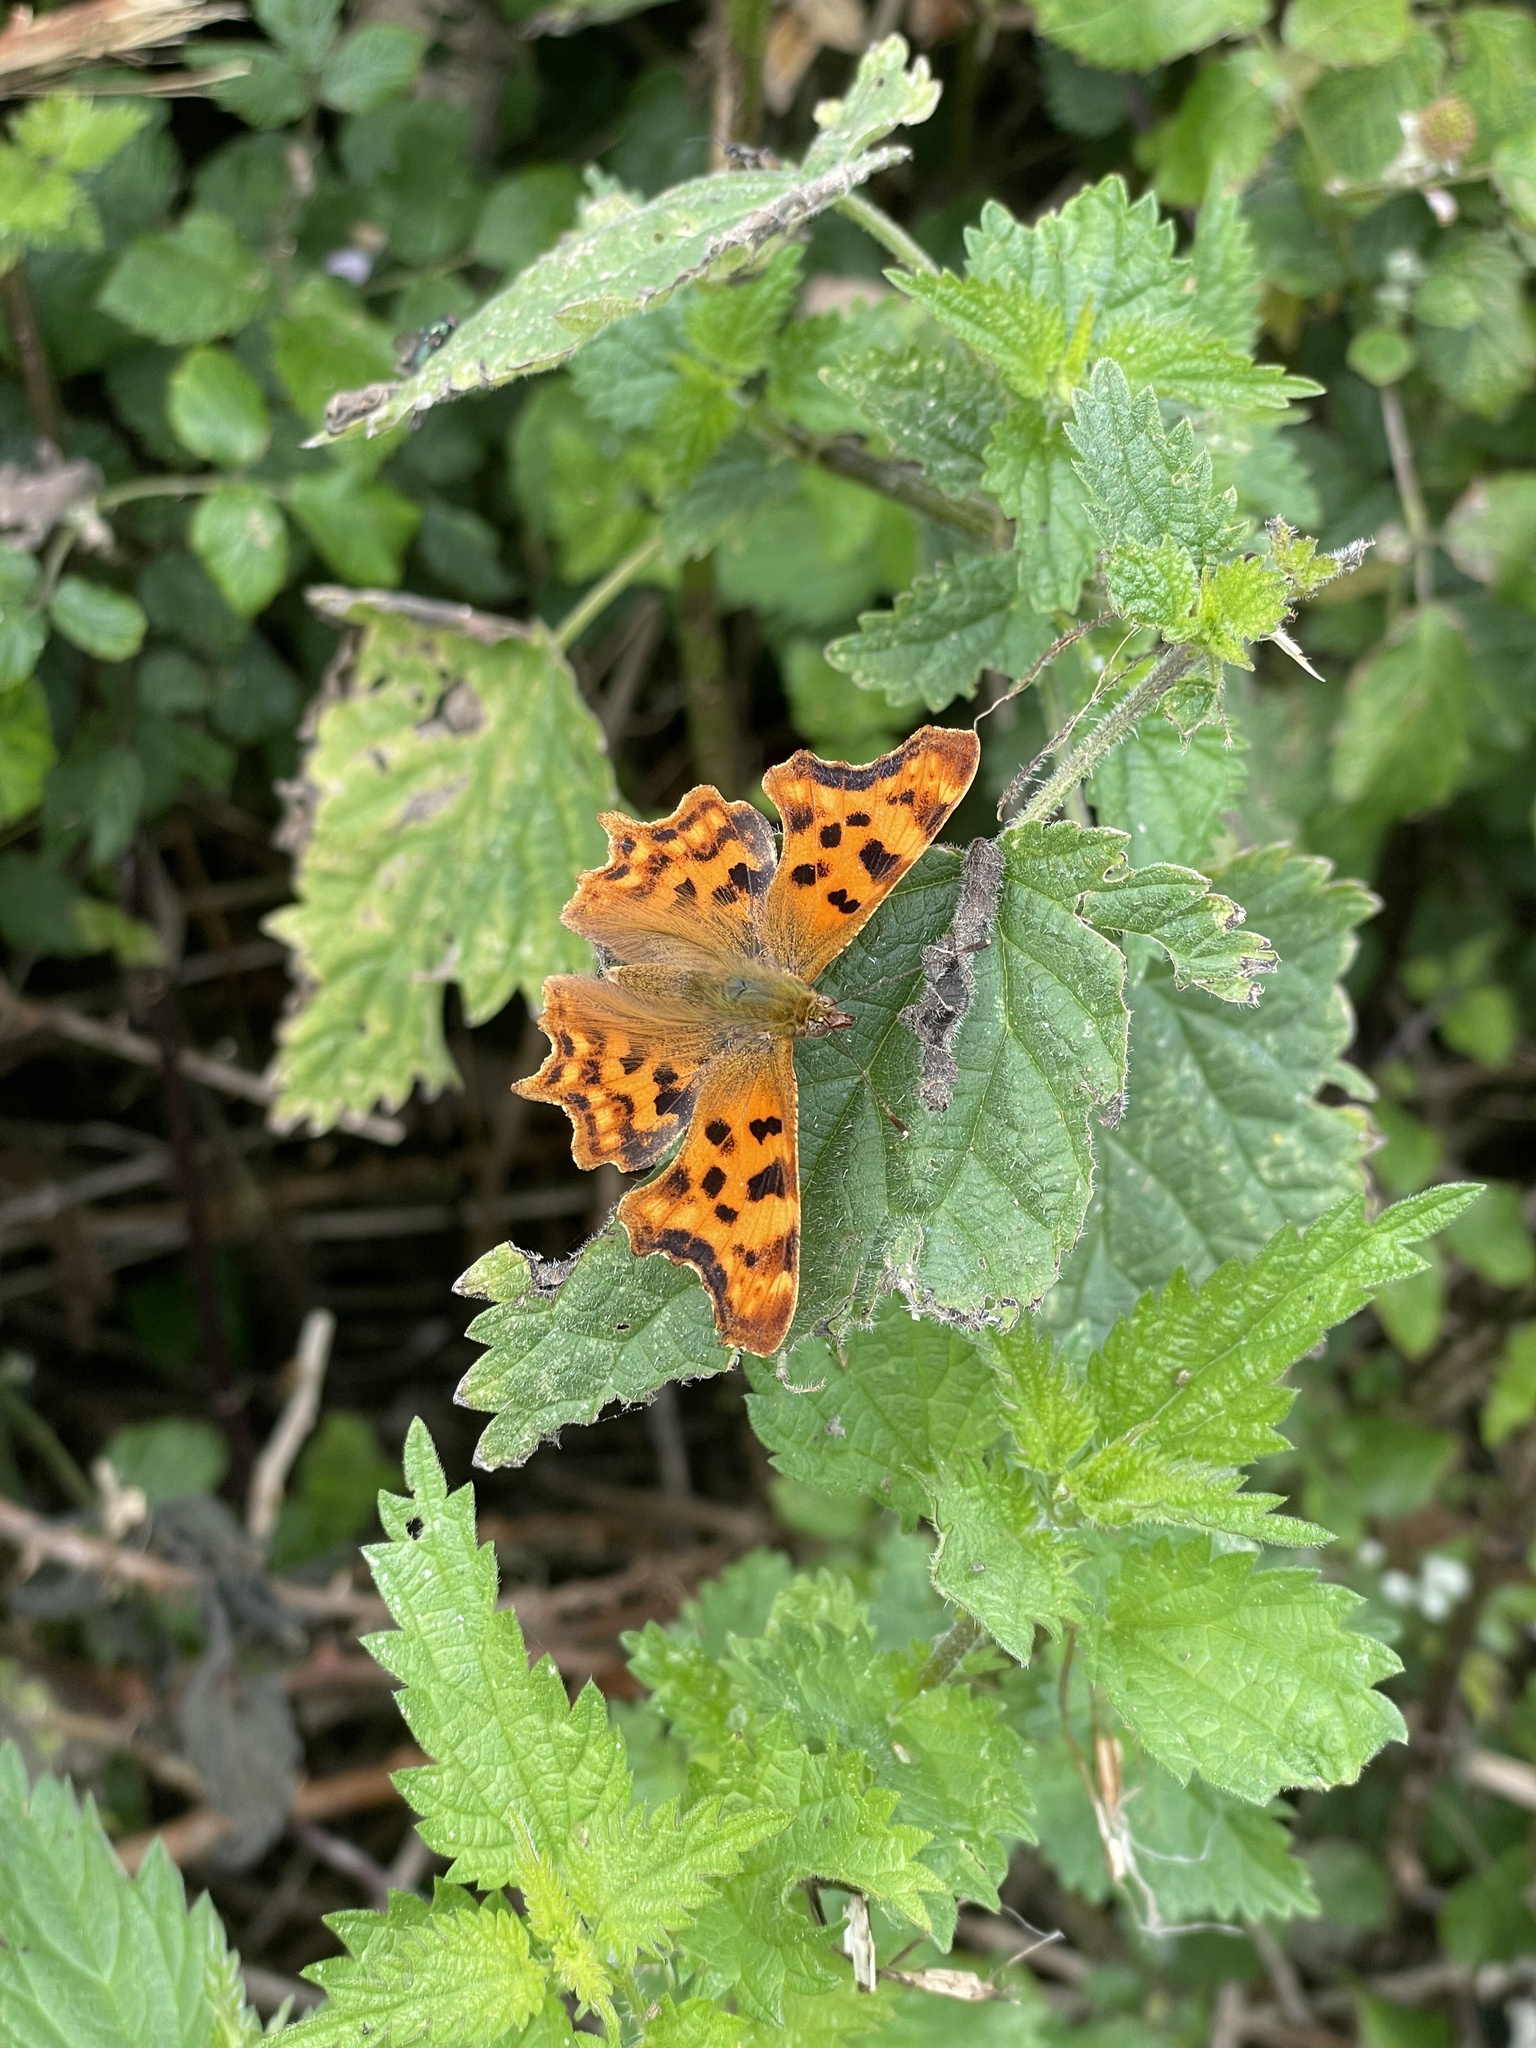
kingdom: Animalia
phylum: Arthropoda
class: Insecta
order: Lepidoptera
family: Nymphalidae
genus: Polygonia
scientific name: Polygonia c-album
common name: Comma
